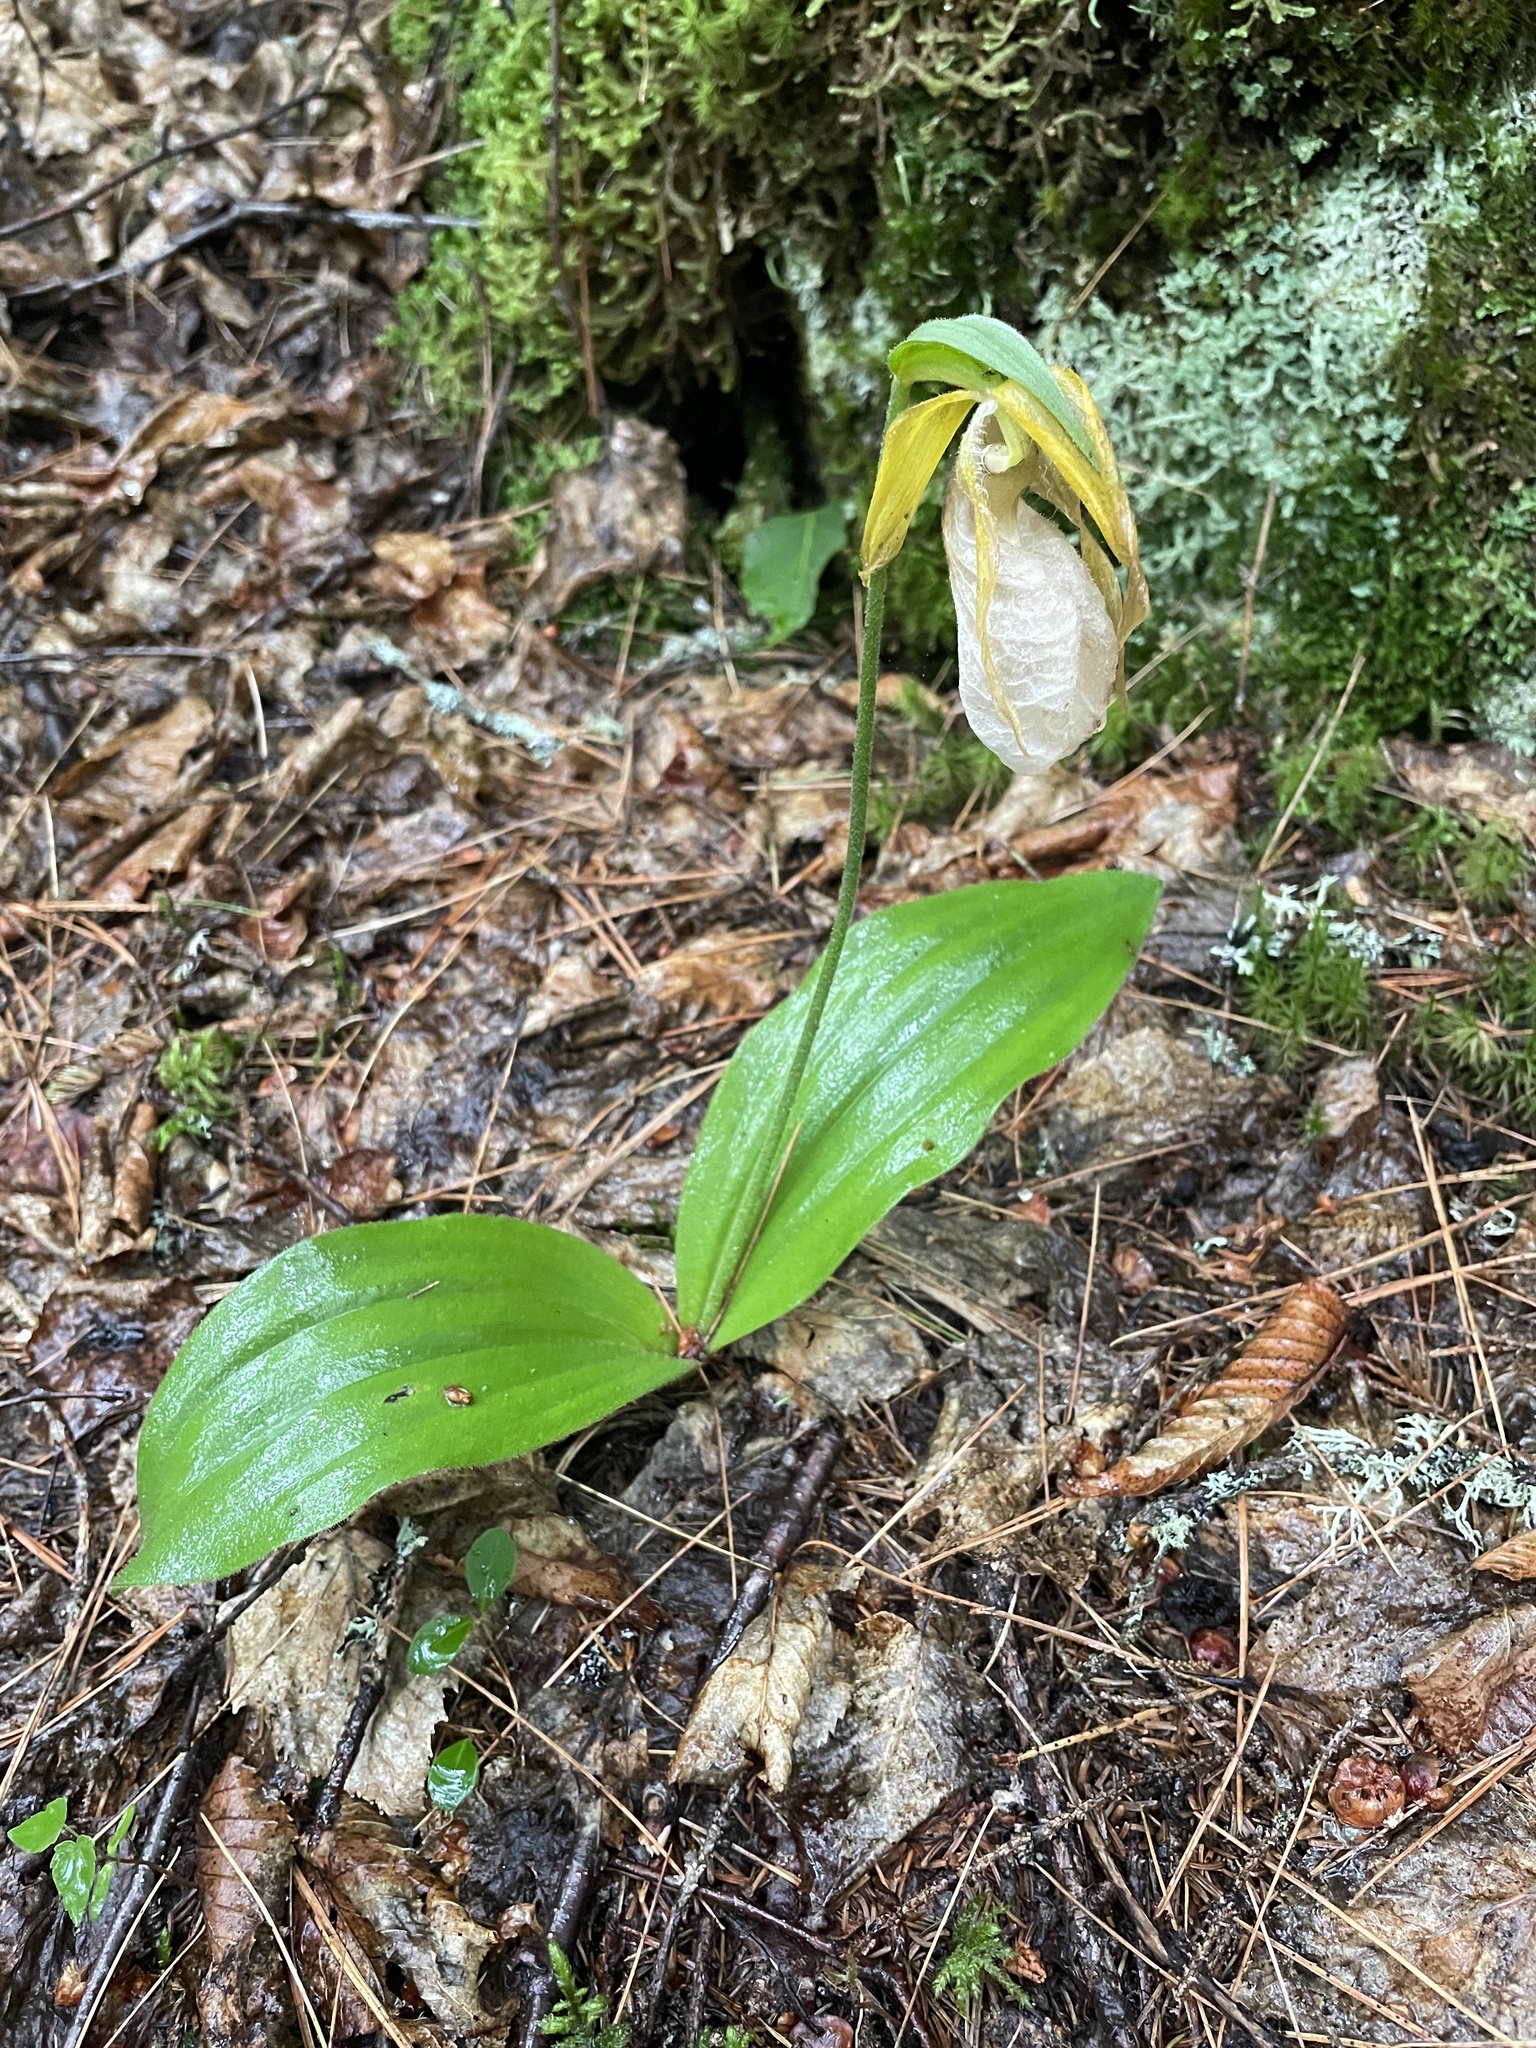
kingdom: Plantae
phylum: Tracheophyta
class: Liliopsida
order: Asparagales
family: Orchidaceae
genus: Cypripedium
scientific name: Cypripedium acaule
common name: Pink lady's-slipper
